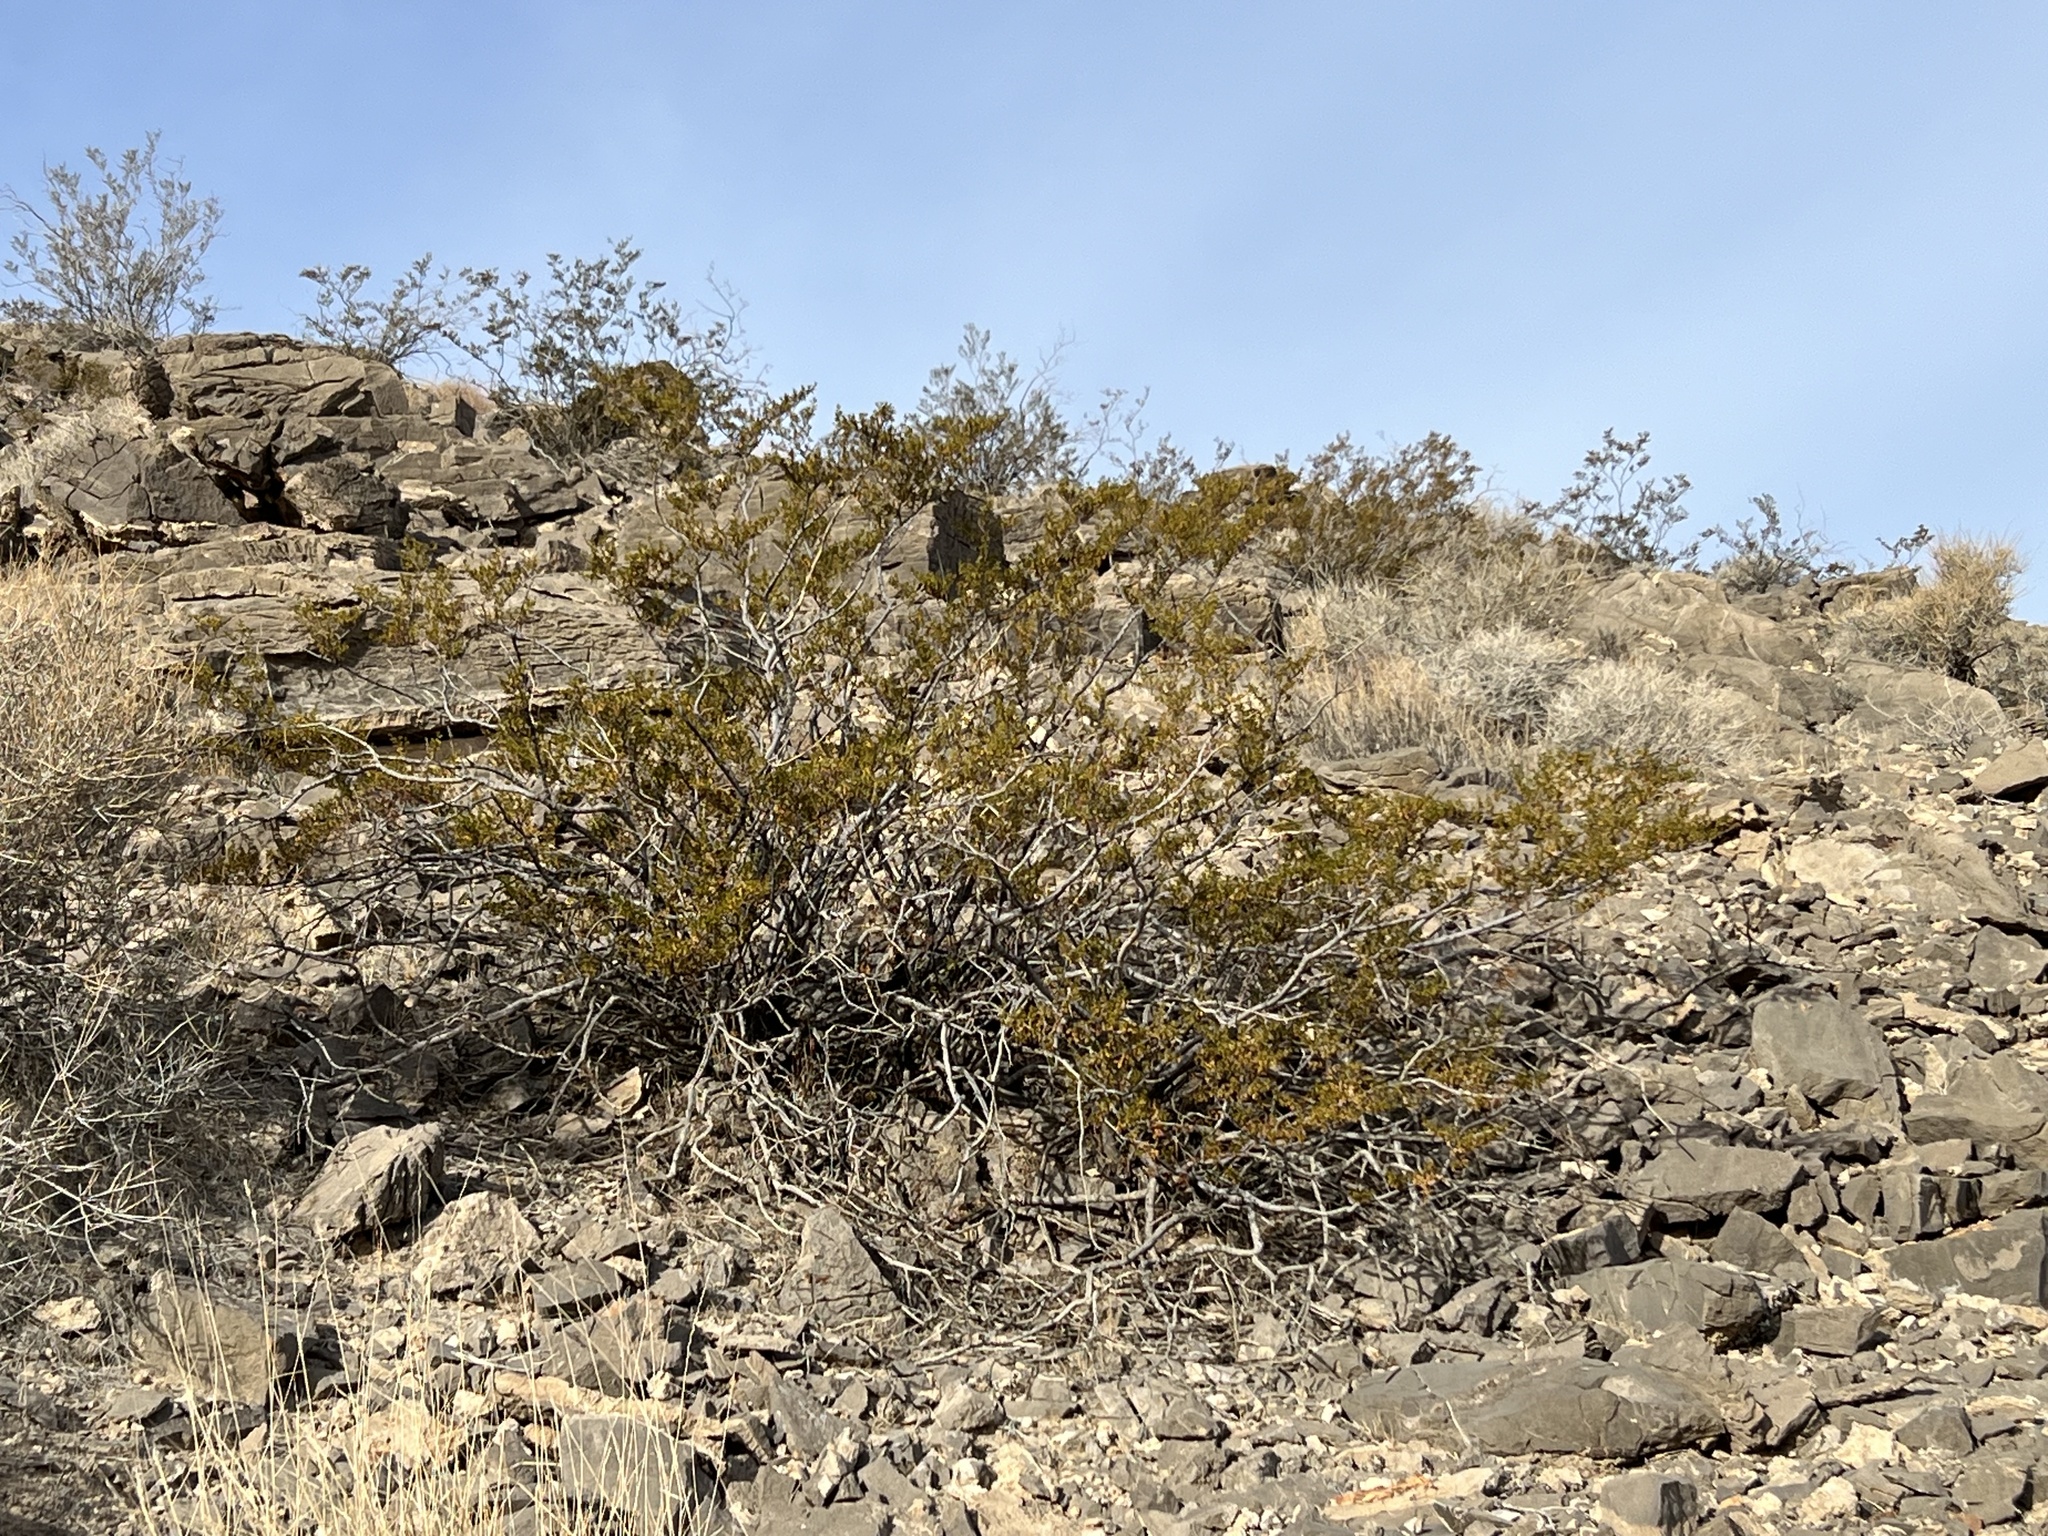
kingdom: Plantae
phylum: Tracheophyta
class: Magnoliopsida
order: Zygophyllales
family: Zygophyllaceae
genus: Larrea
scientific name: Larrea tridentata
